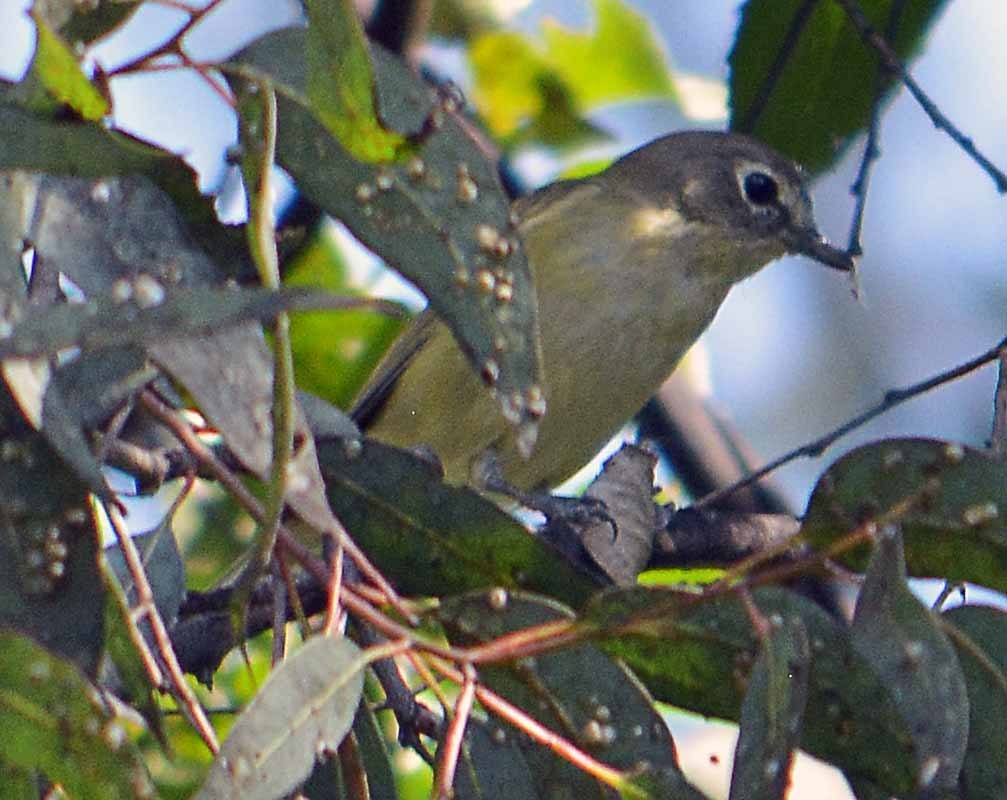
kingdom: Animalia
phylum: Chordata
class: Aves
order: Passeriformes
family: Vireonidae
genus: Vireo
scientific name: Vireo cassinii
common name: Cassin's vireo
